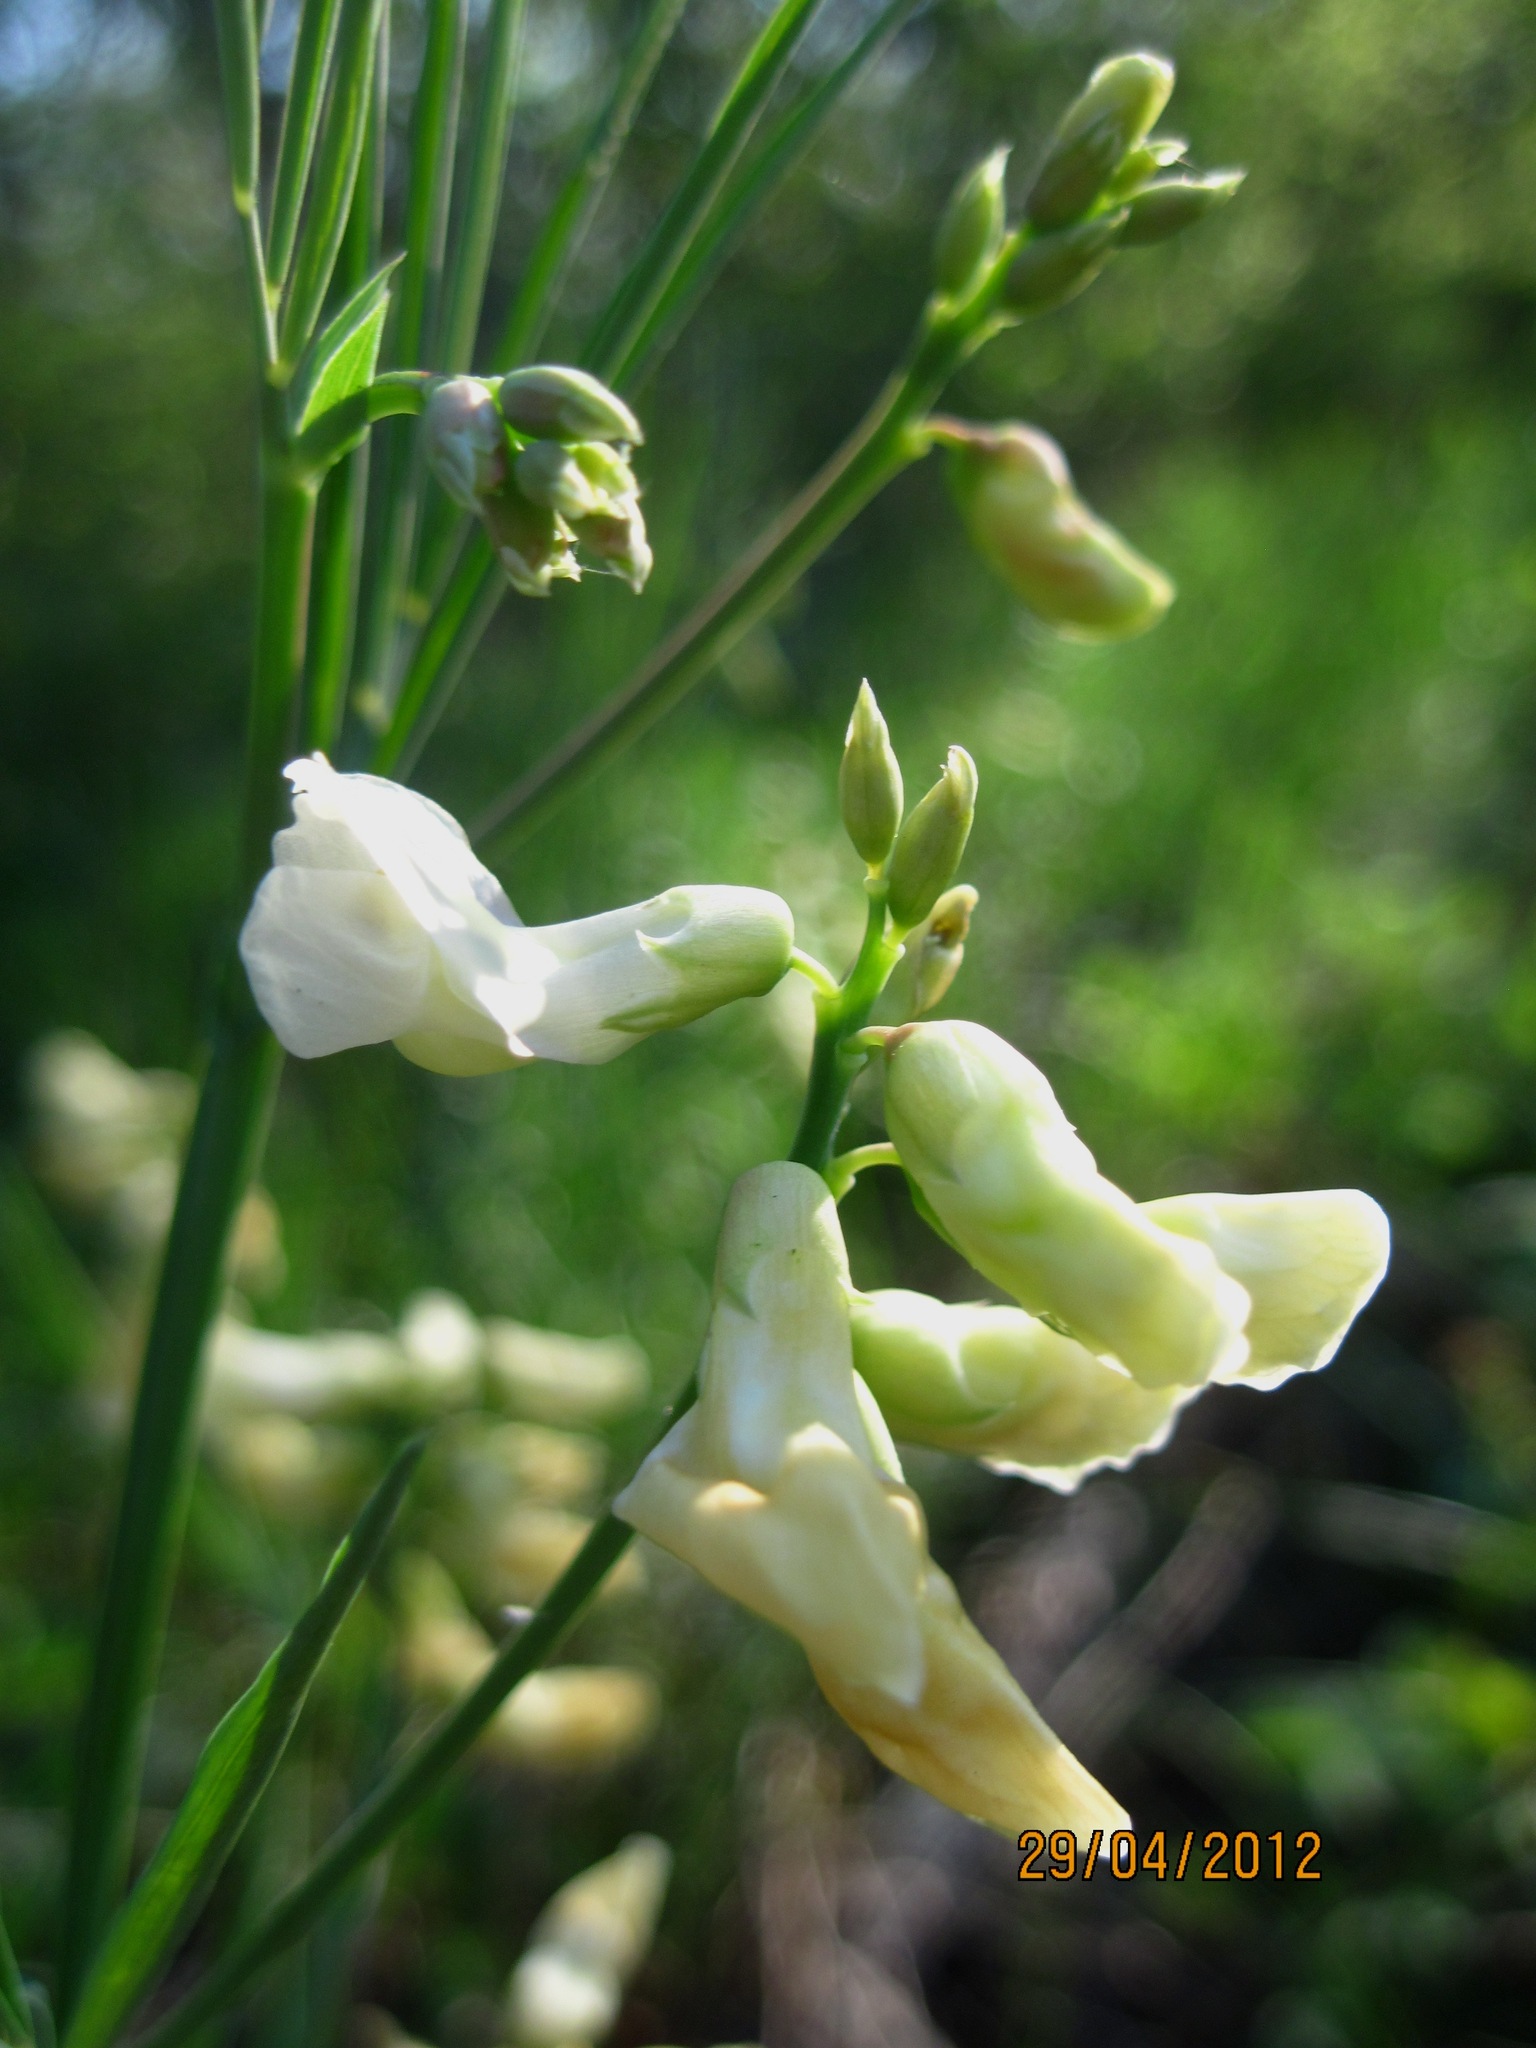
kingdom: Plantae
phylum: Tracheophyta
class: Magnoliopsida
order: Fabales
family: Fabaceae
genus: Lathyrus
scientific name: Lathyrus pannonicus
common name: Pea
